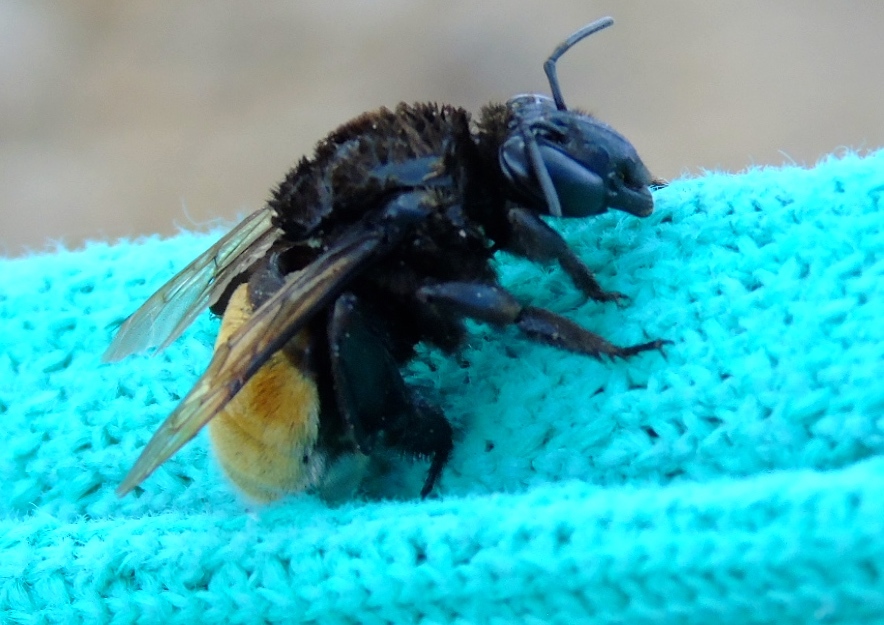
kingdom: Animalia
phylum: Arthropoda
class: Insecta
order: Hymenoptera
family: Apidae
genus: Eulaema
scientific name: Eulaema polychroma
